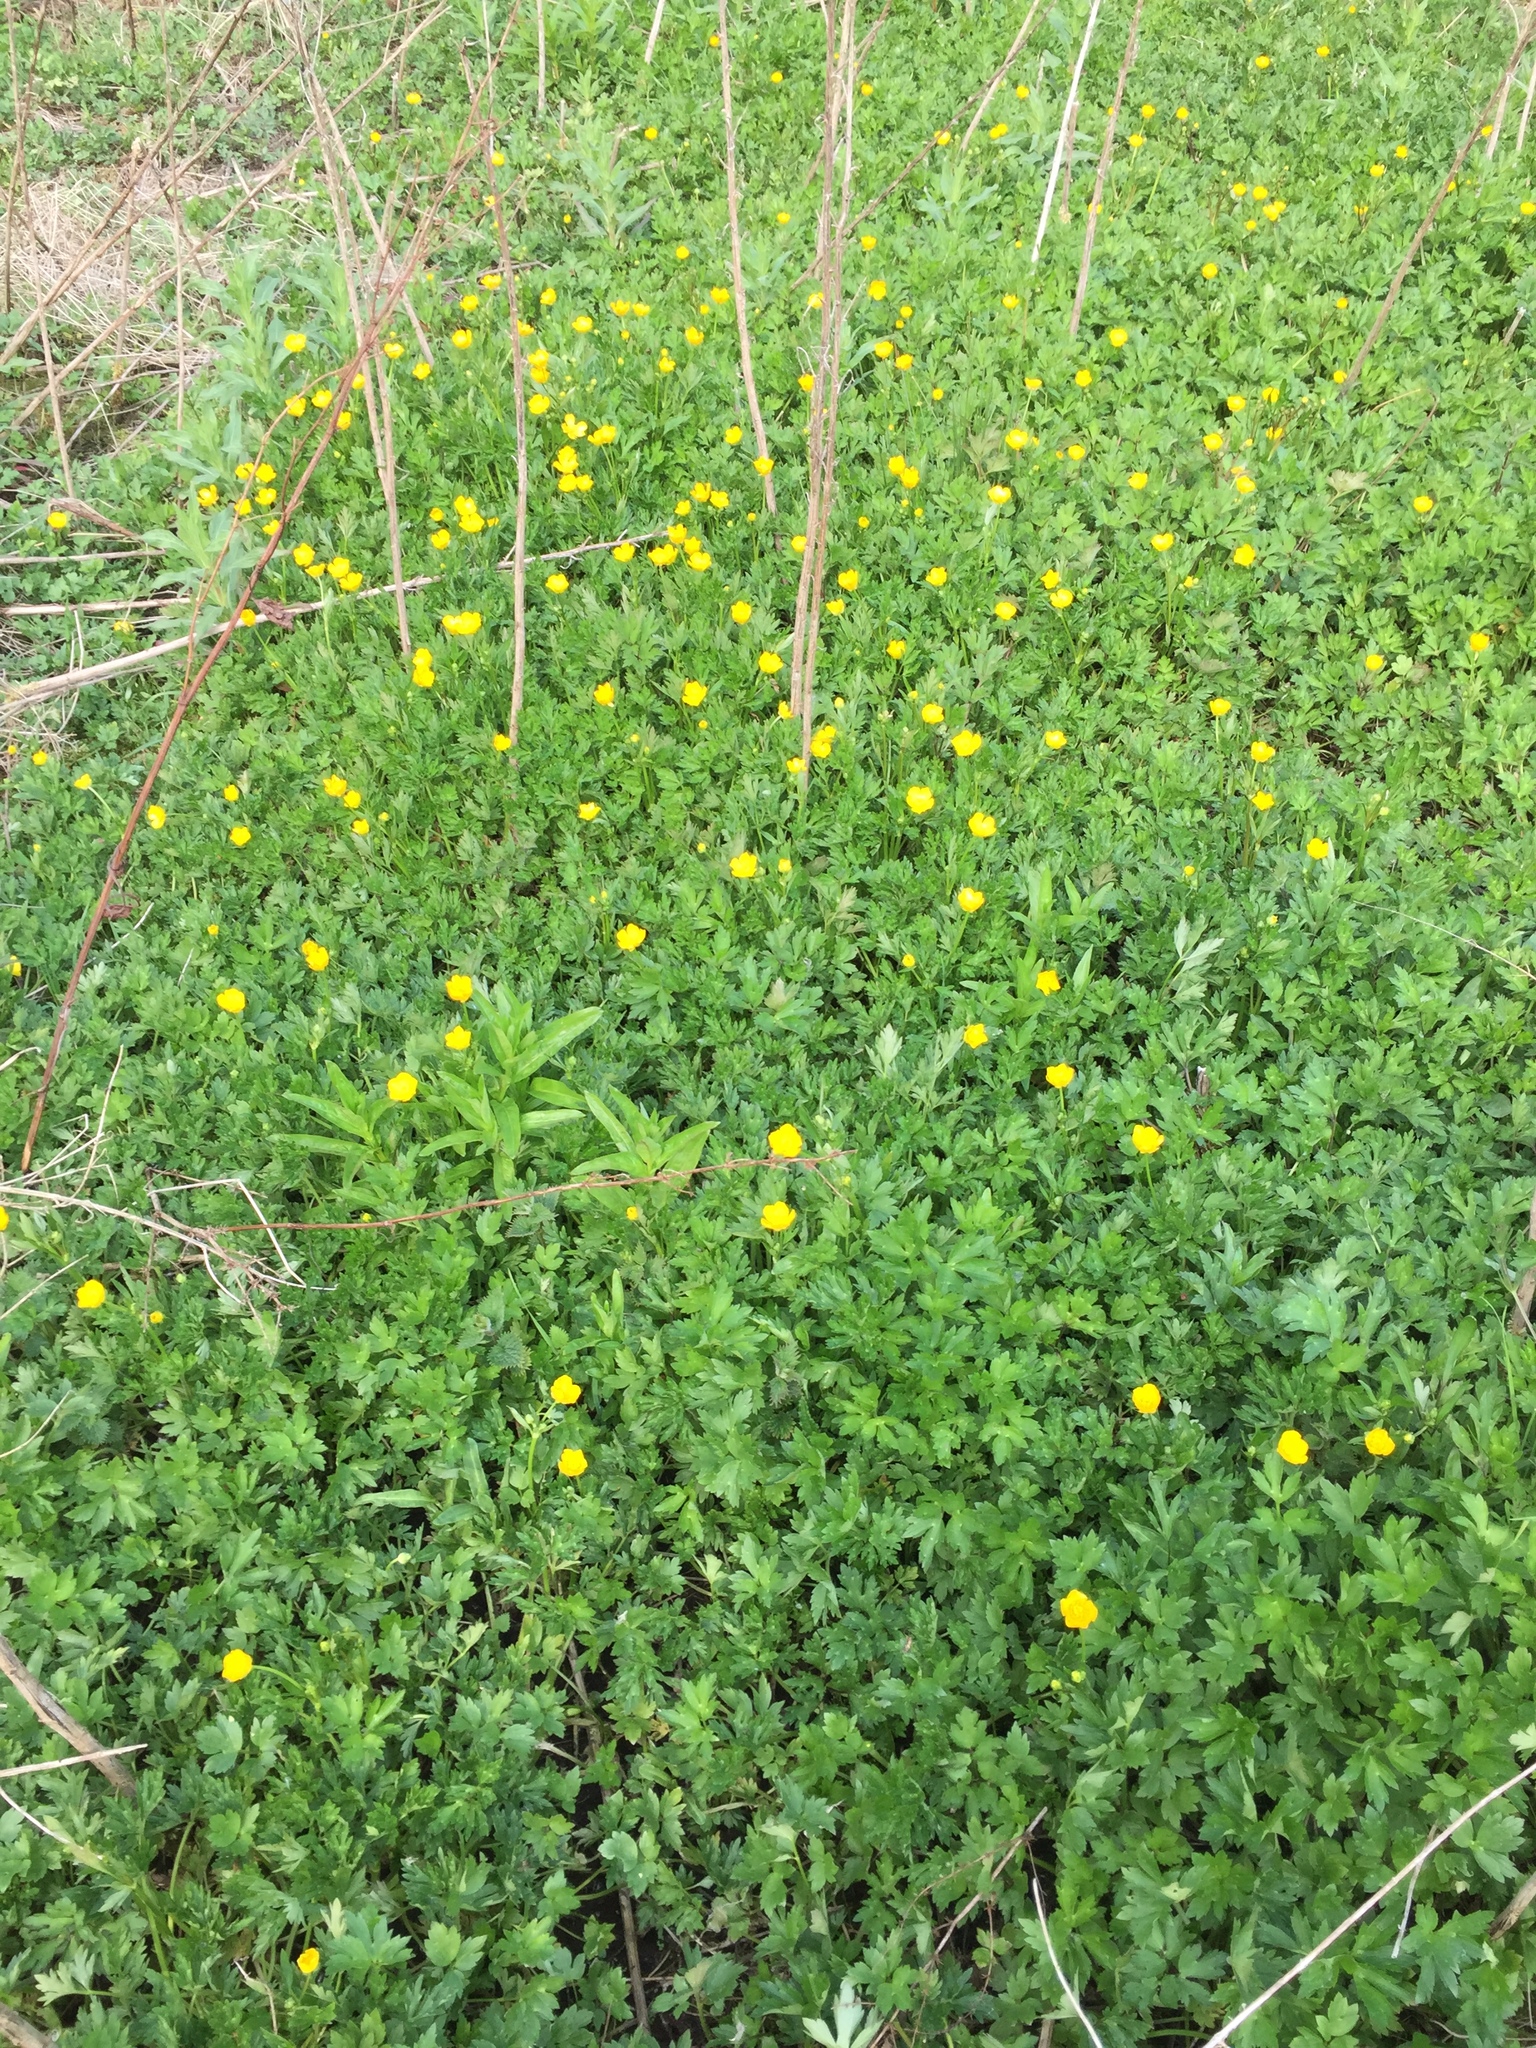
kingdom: Plantae
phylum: Tracheophyta
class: Magnoliopsida
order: Ranunculales
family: Ranunculaceae
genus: Ranunculus
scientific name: Ranunculus repens
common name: Creeping buttercup
